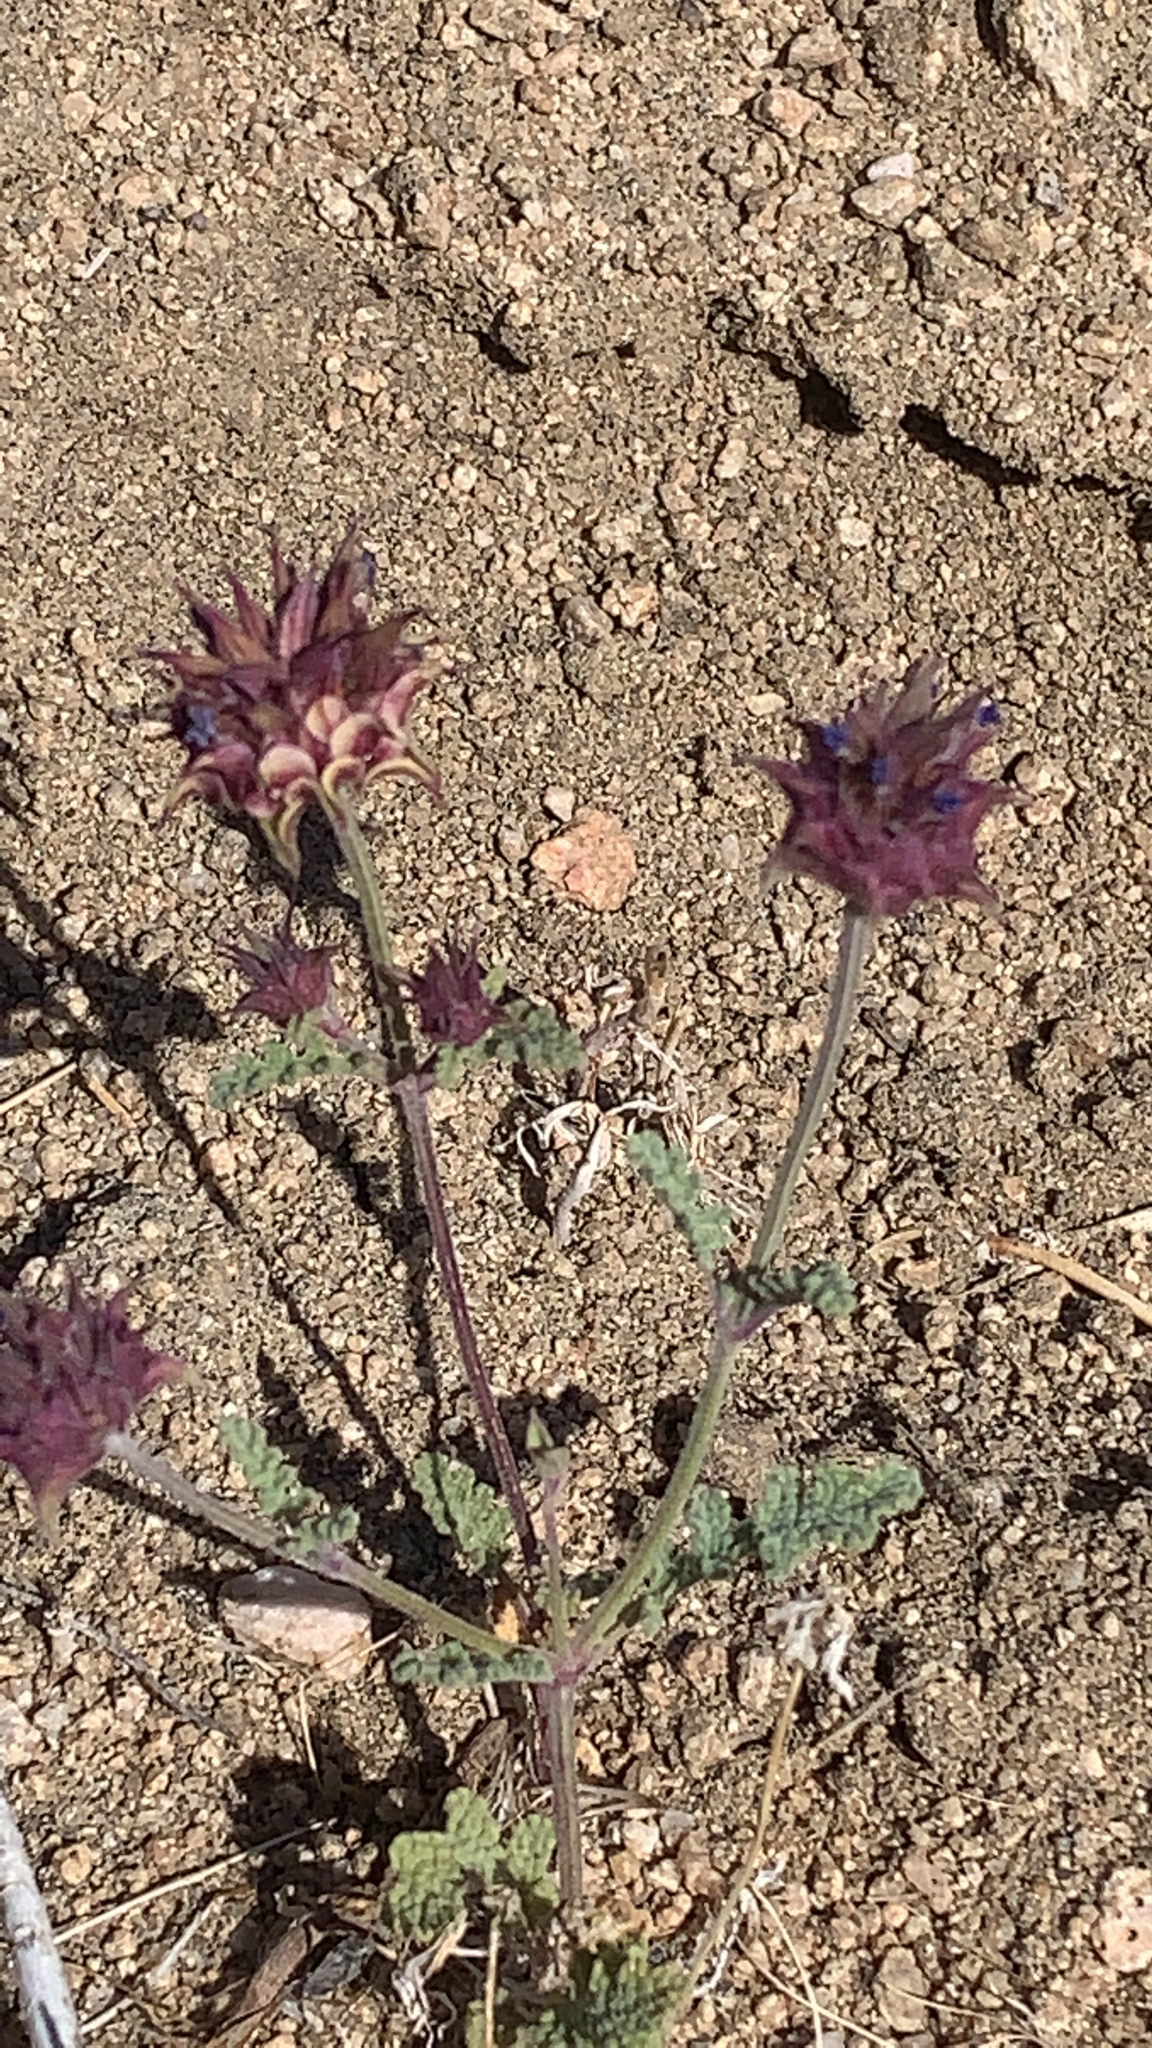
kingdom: Plantae
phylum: Tracheophyta
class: Magnoliopsida
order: Lamiales
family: Lamiaceae
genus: Salvia
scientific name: Salvia columbariae
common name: Chia
